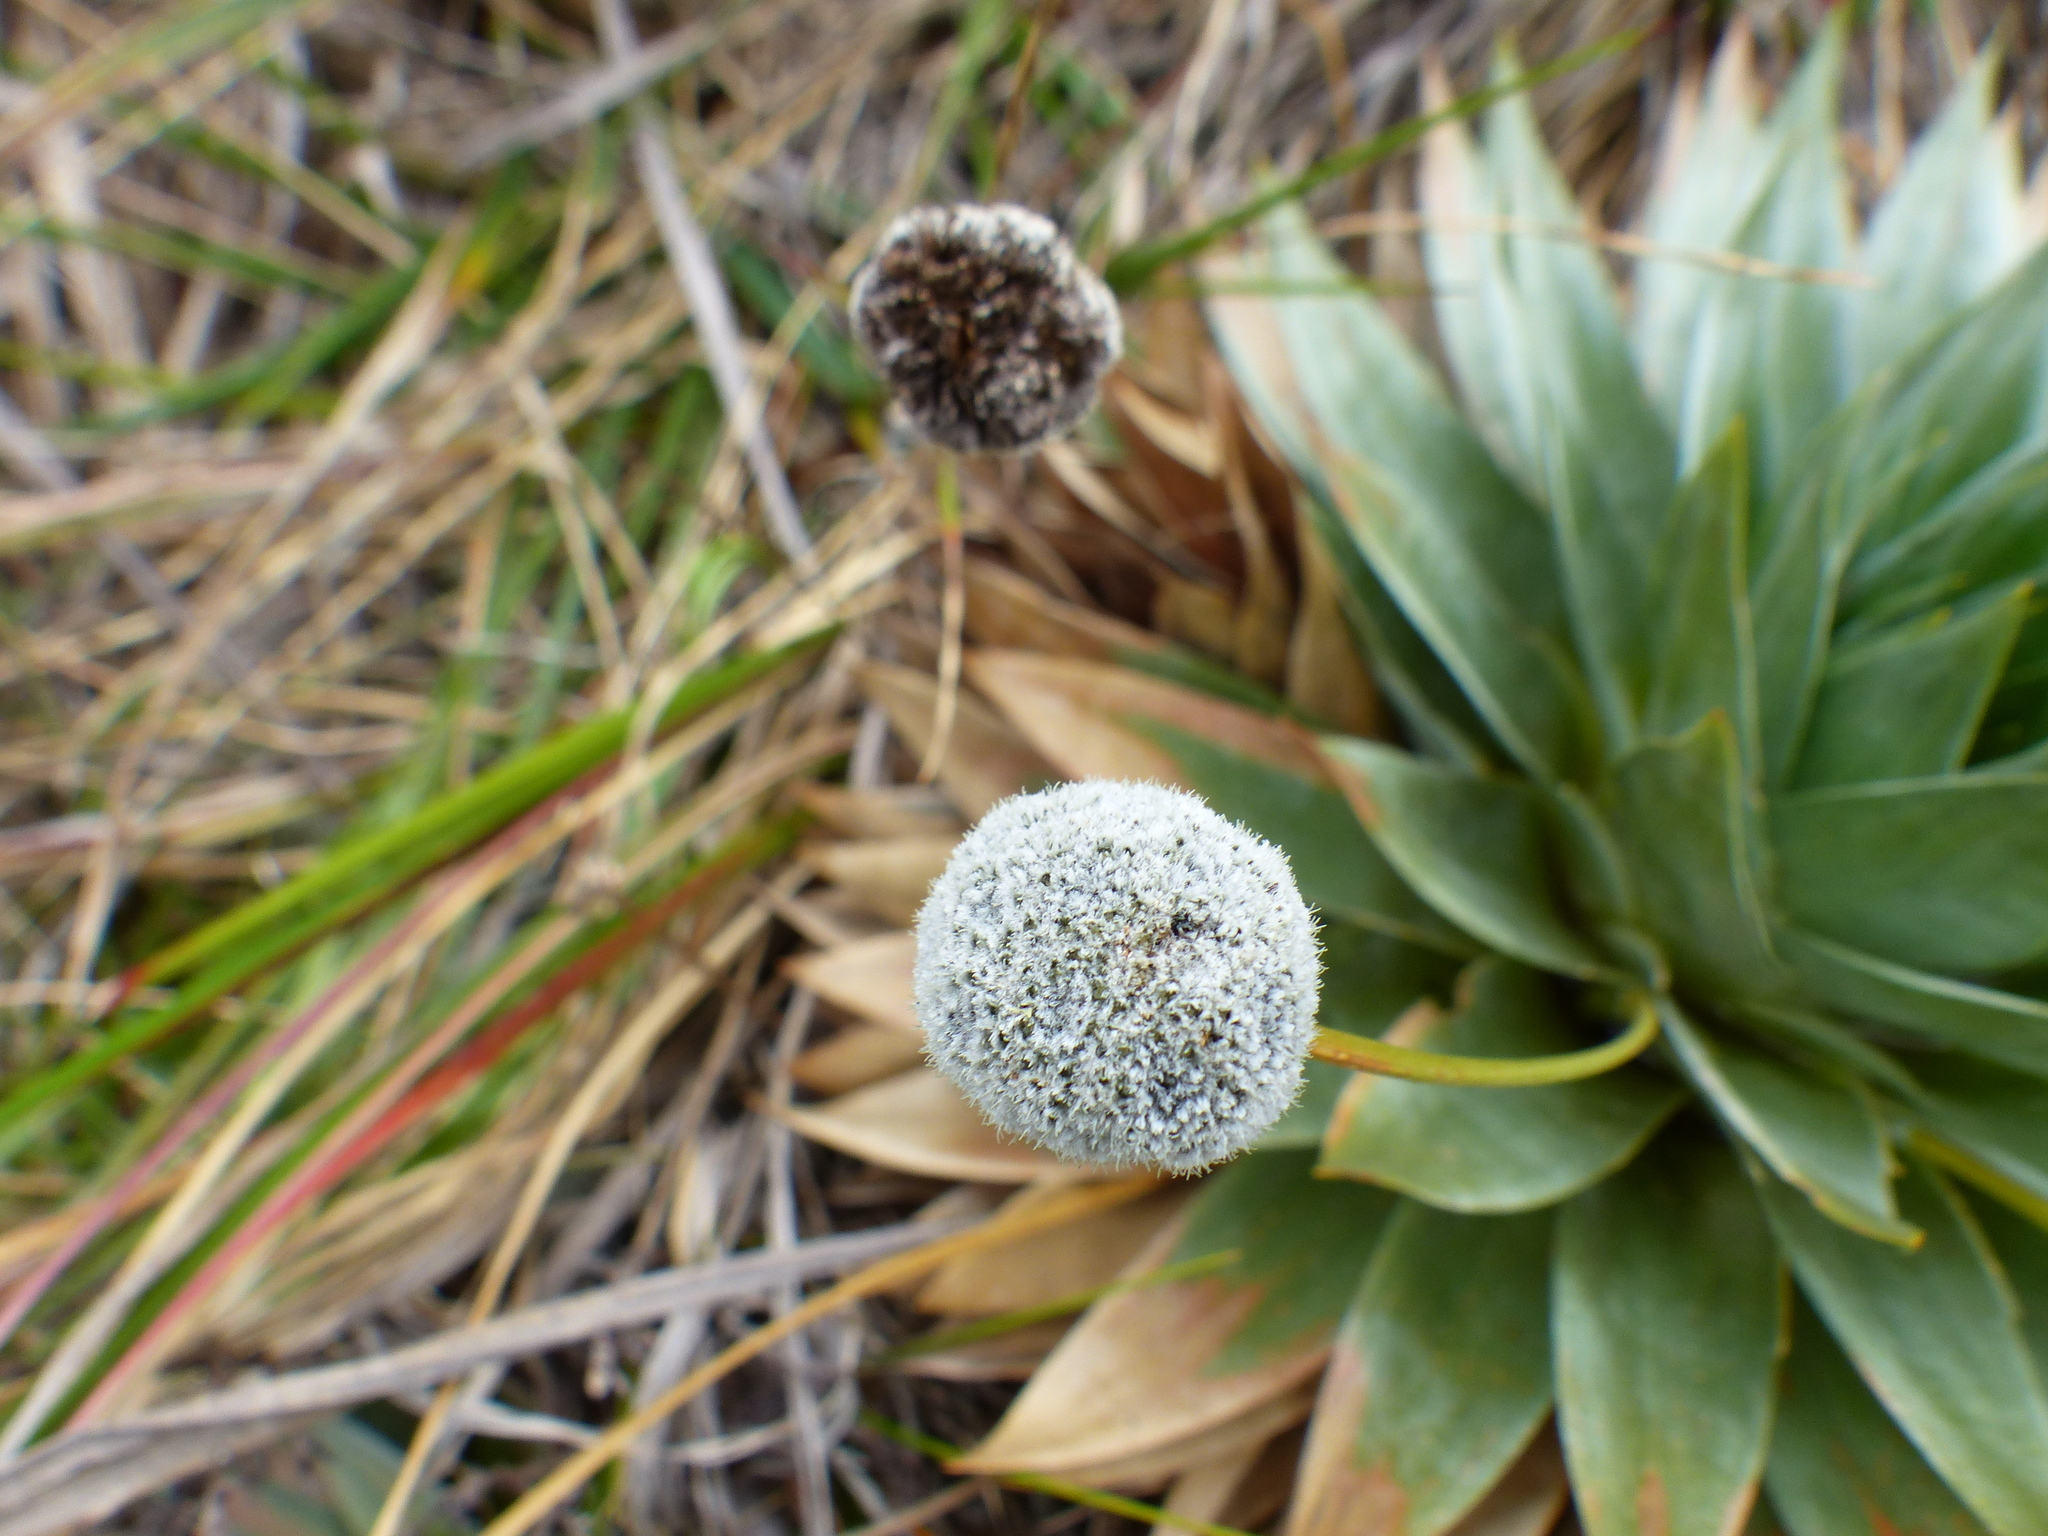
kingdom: Plantae
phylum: Tracheophyta
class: Liliopsida
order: Poales
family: Eriocaulaceae
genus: Paepalanthus
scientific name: Paepalanthus alpinus
